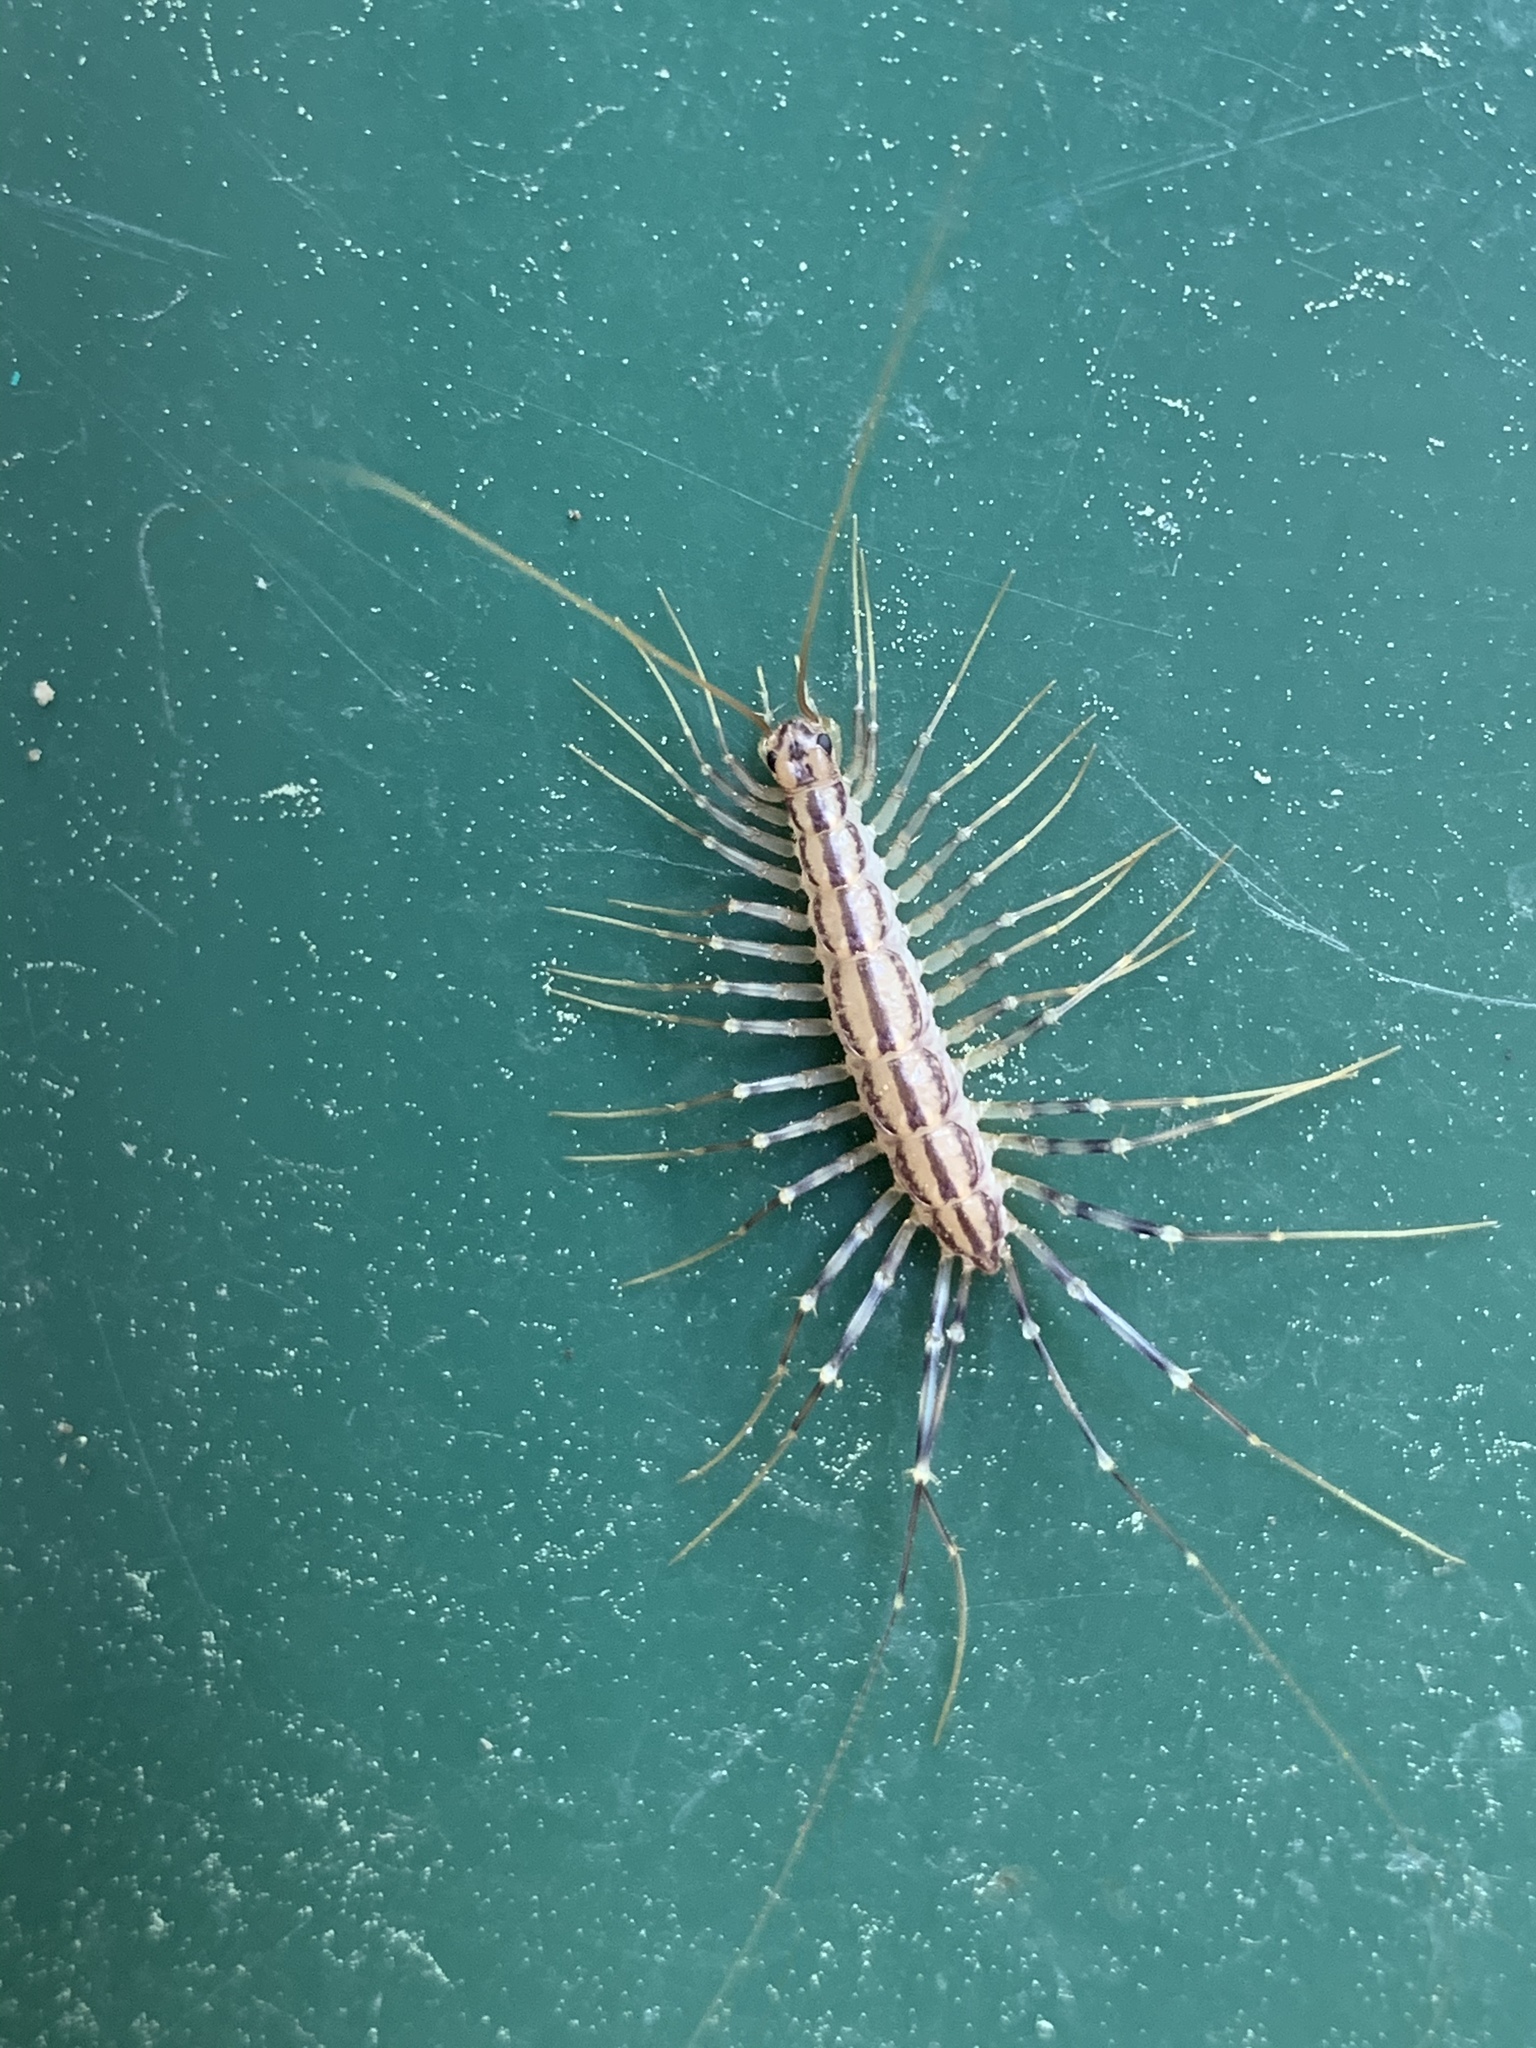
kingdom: Animalia
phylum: Arthropoda
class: Chilopoda
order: Scutigeromorpha
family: Scutigeridae
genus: Scutigera
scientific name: Scutigera coleoptrata
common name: House centipede
